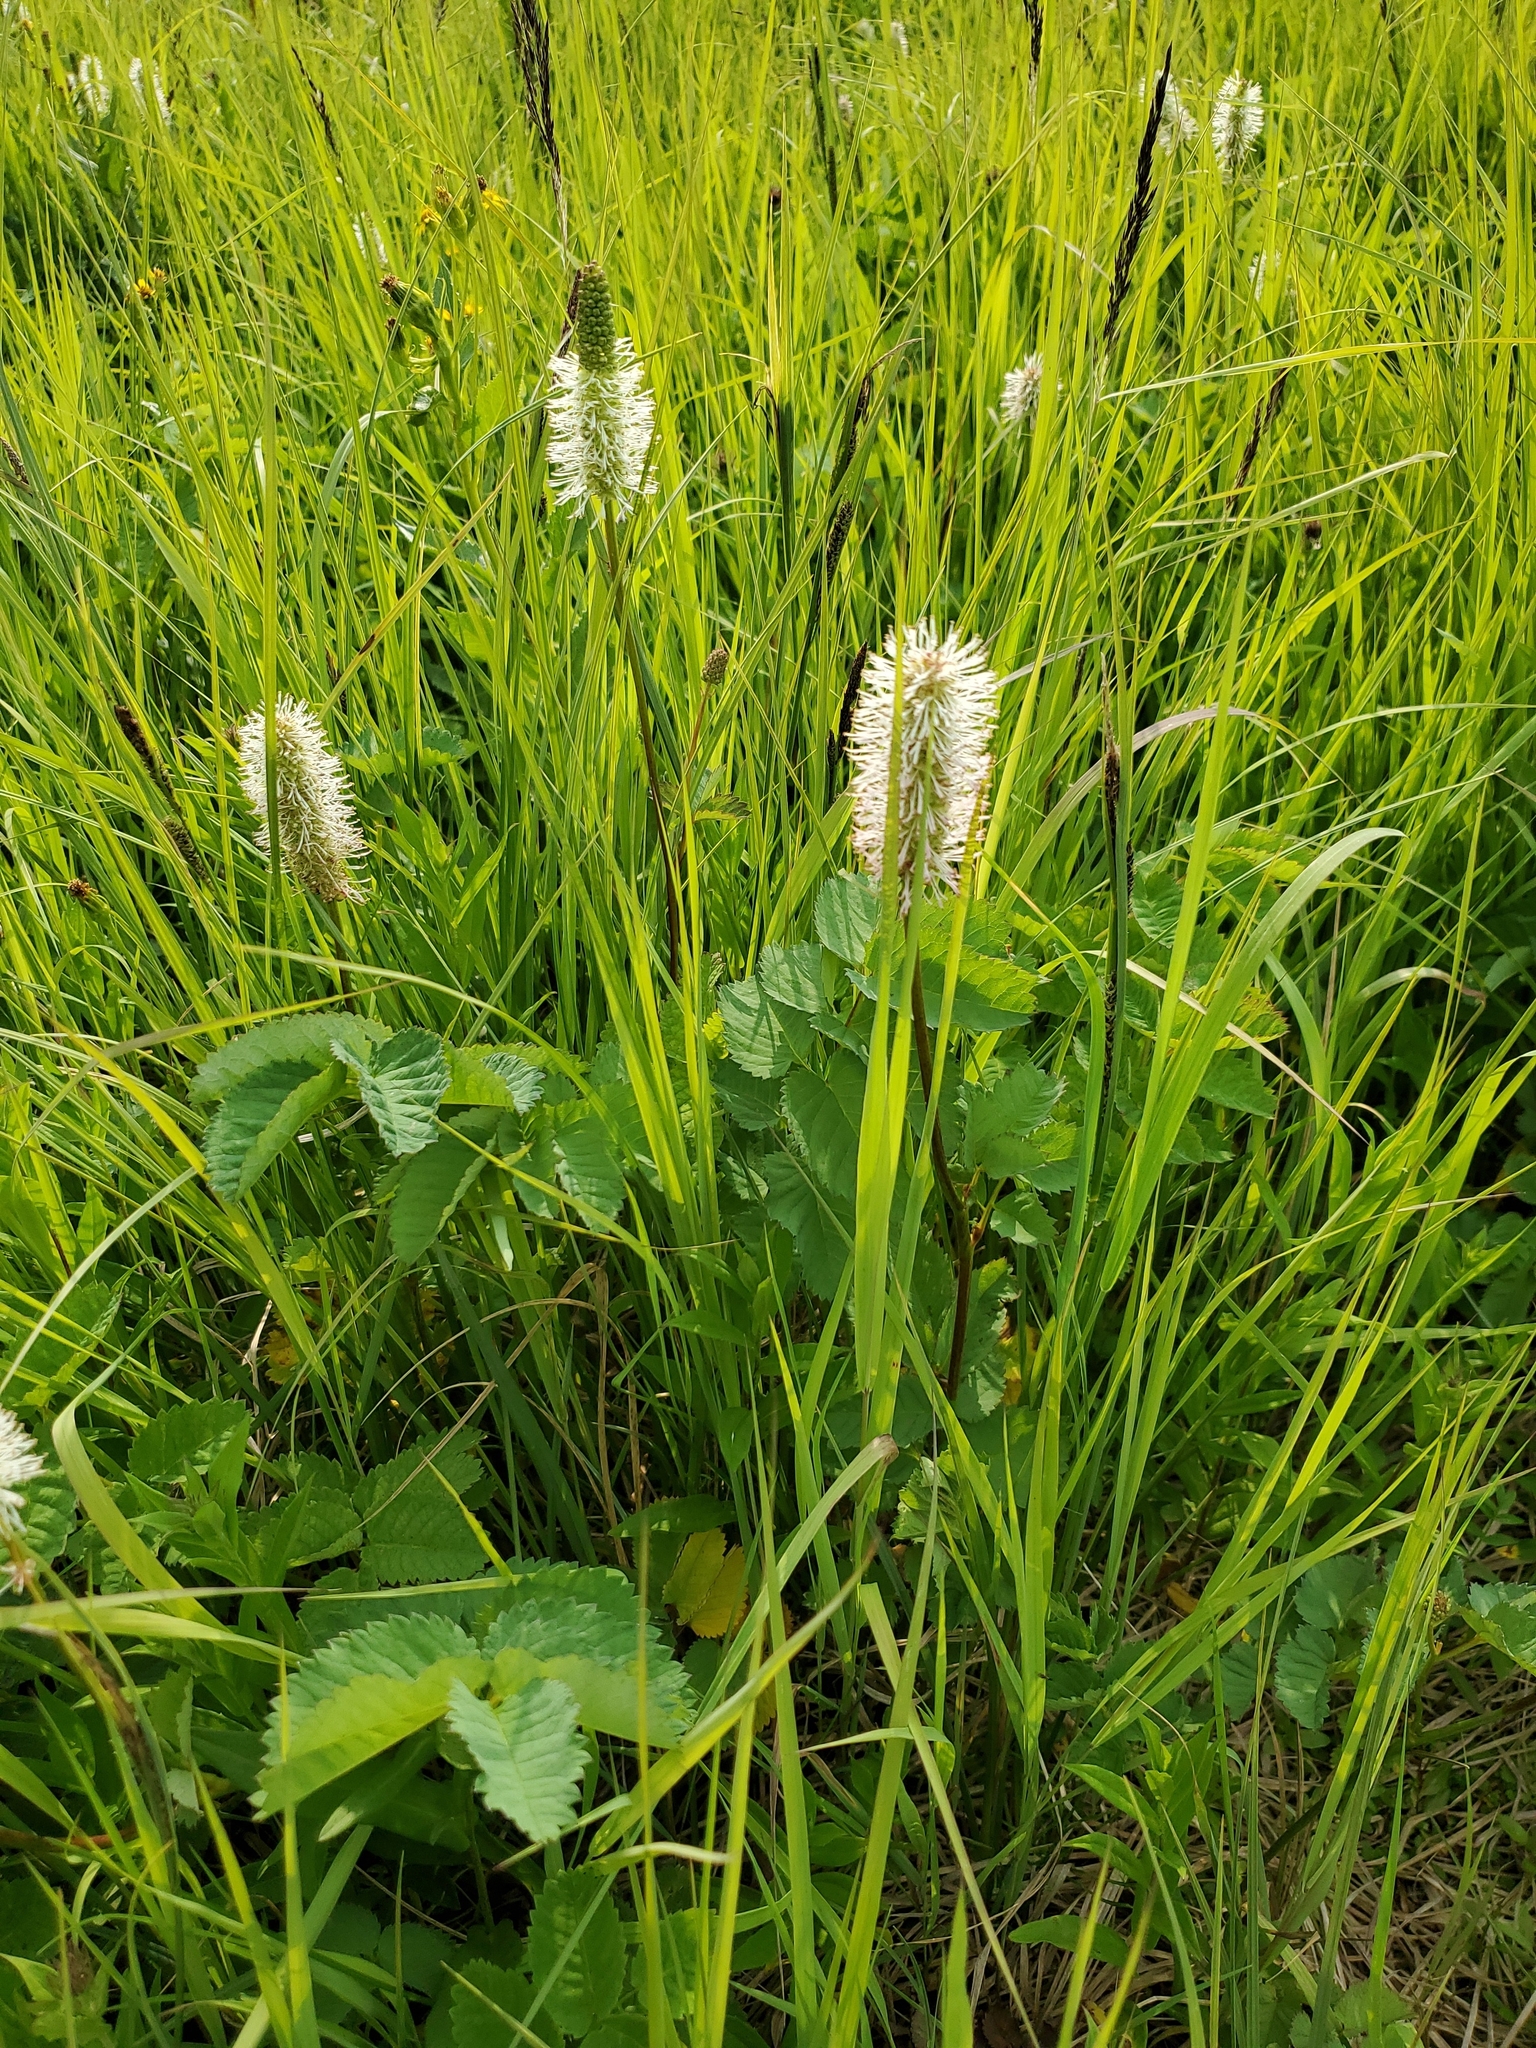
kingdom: Plantae
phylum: Tracheophyta
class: Magnoliopsida
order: Rosales
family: Rosaceae
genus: Sanguisorba
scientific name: Sanguisorba stipulata
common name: Sitka burnet
